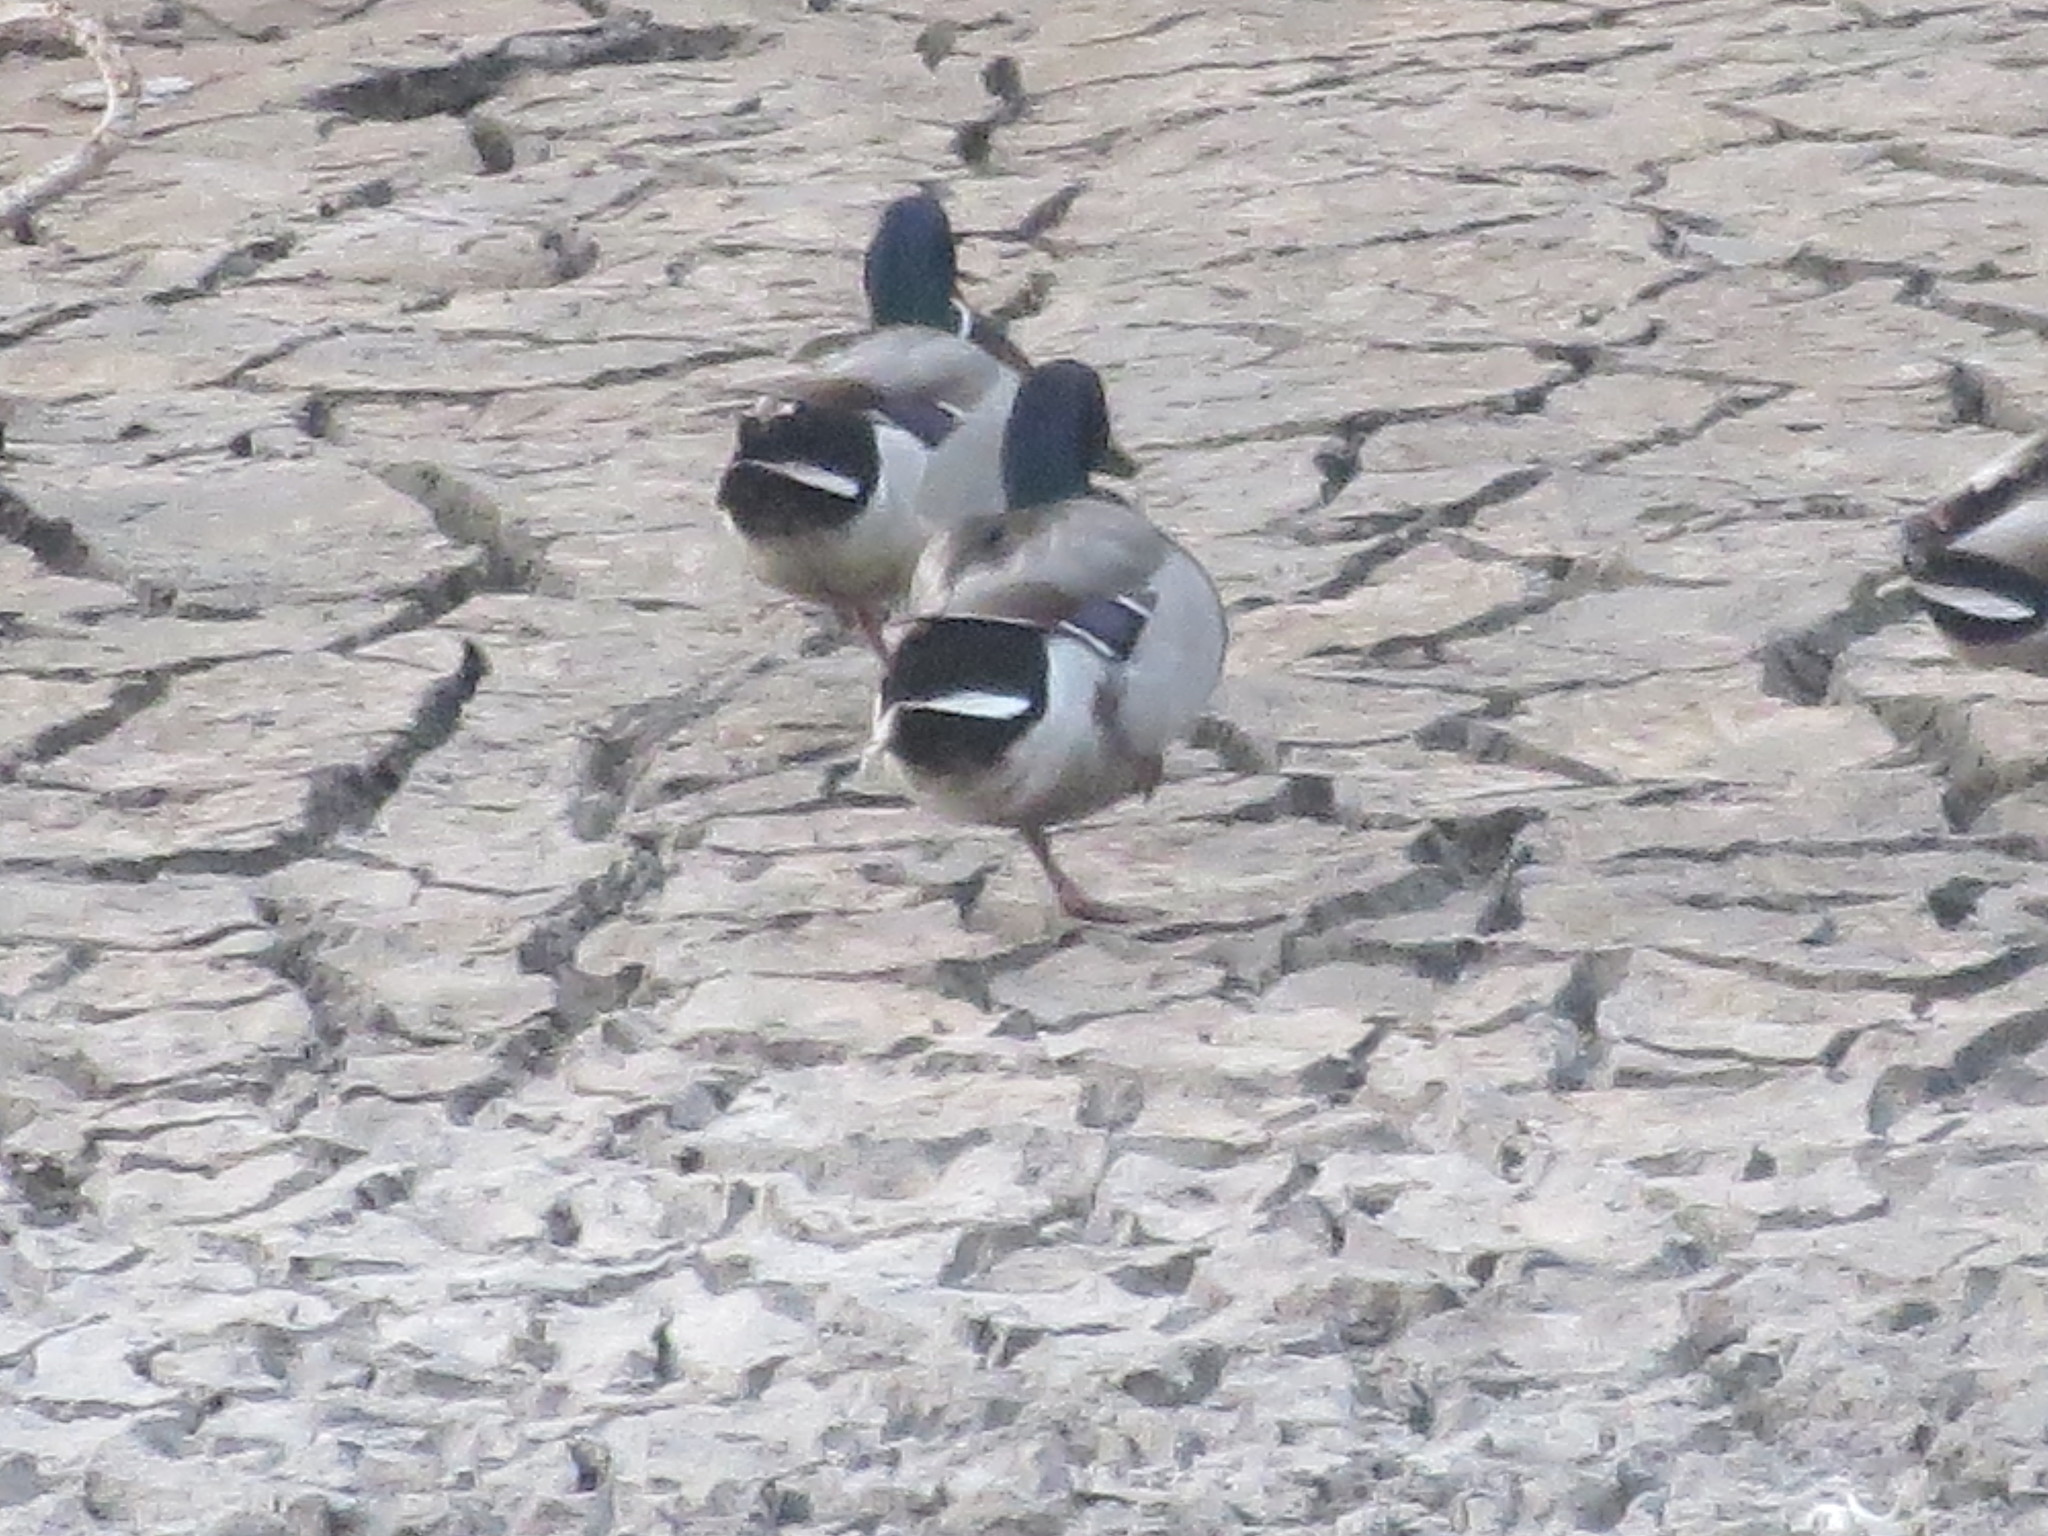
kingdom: Animalia
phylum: Chordata
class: Aves
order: Anseriformes
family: Anatidae
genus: Anas
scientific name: Anas platyrhynchos
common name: Mallard
